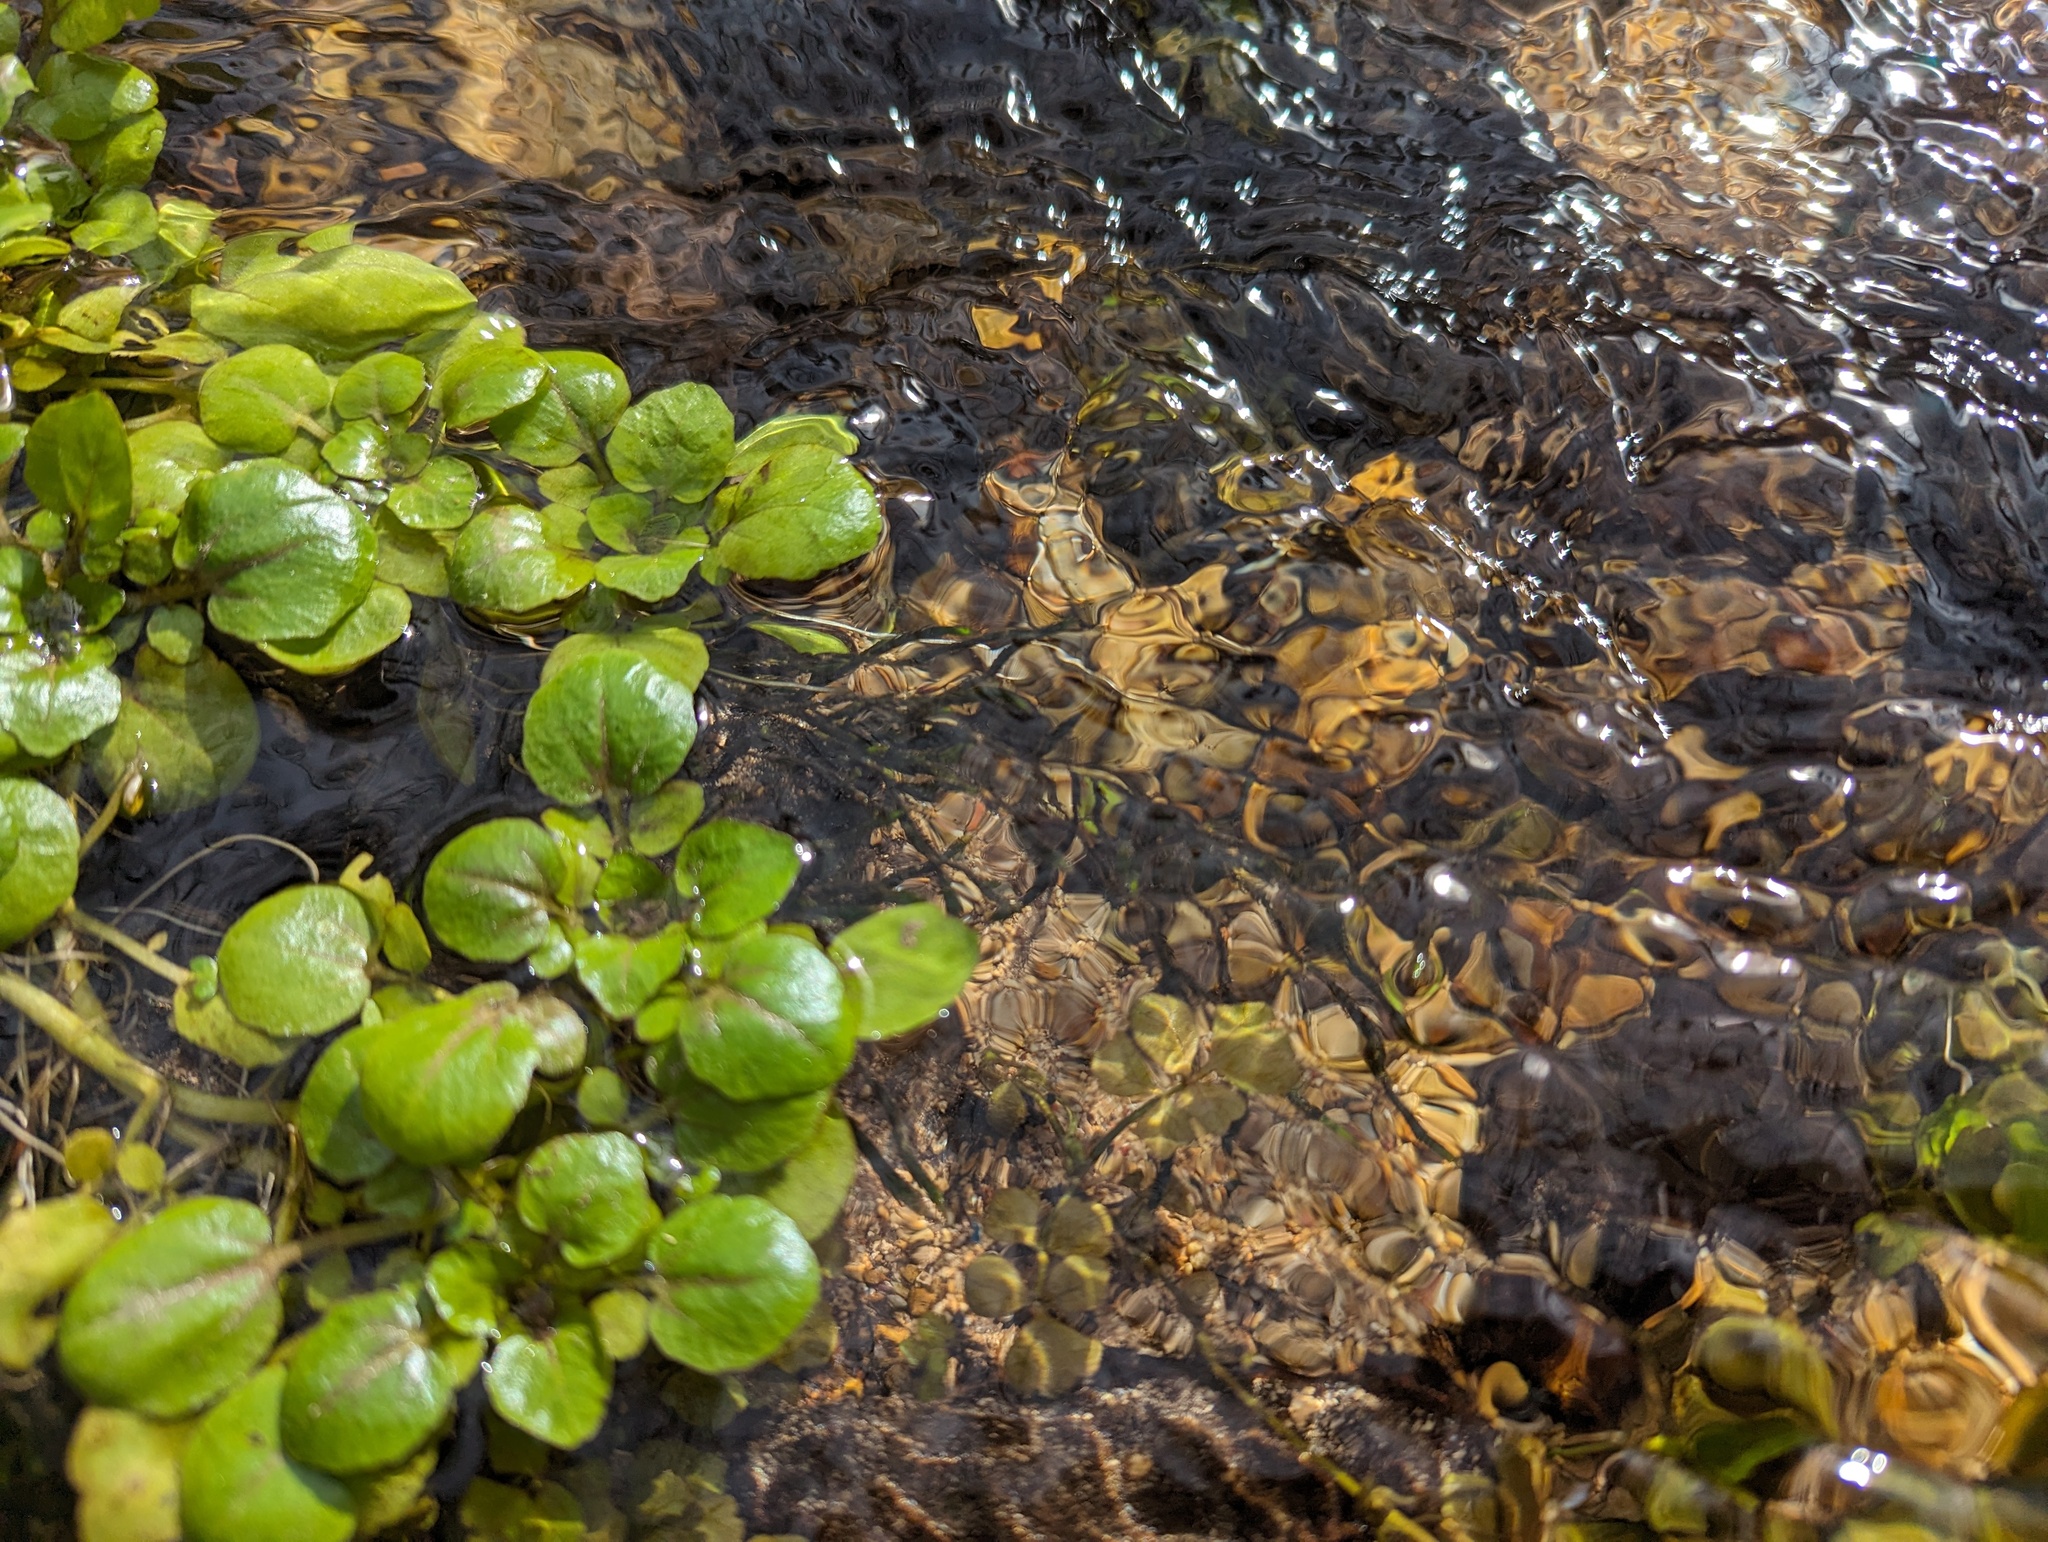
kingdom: Plantae
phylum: Tracheophyta
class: Magnoliopsida
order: Brassicales
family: Brassicaceae
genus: Nasturtium
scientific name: Nasturtium officinale
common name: Watercress
